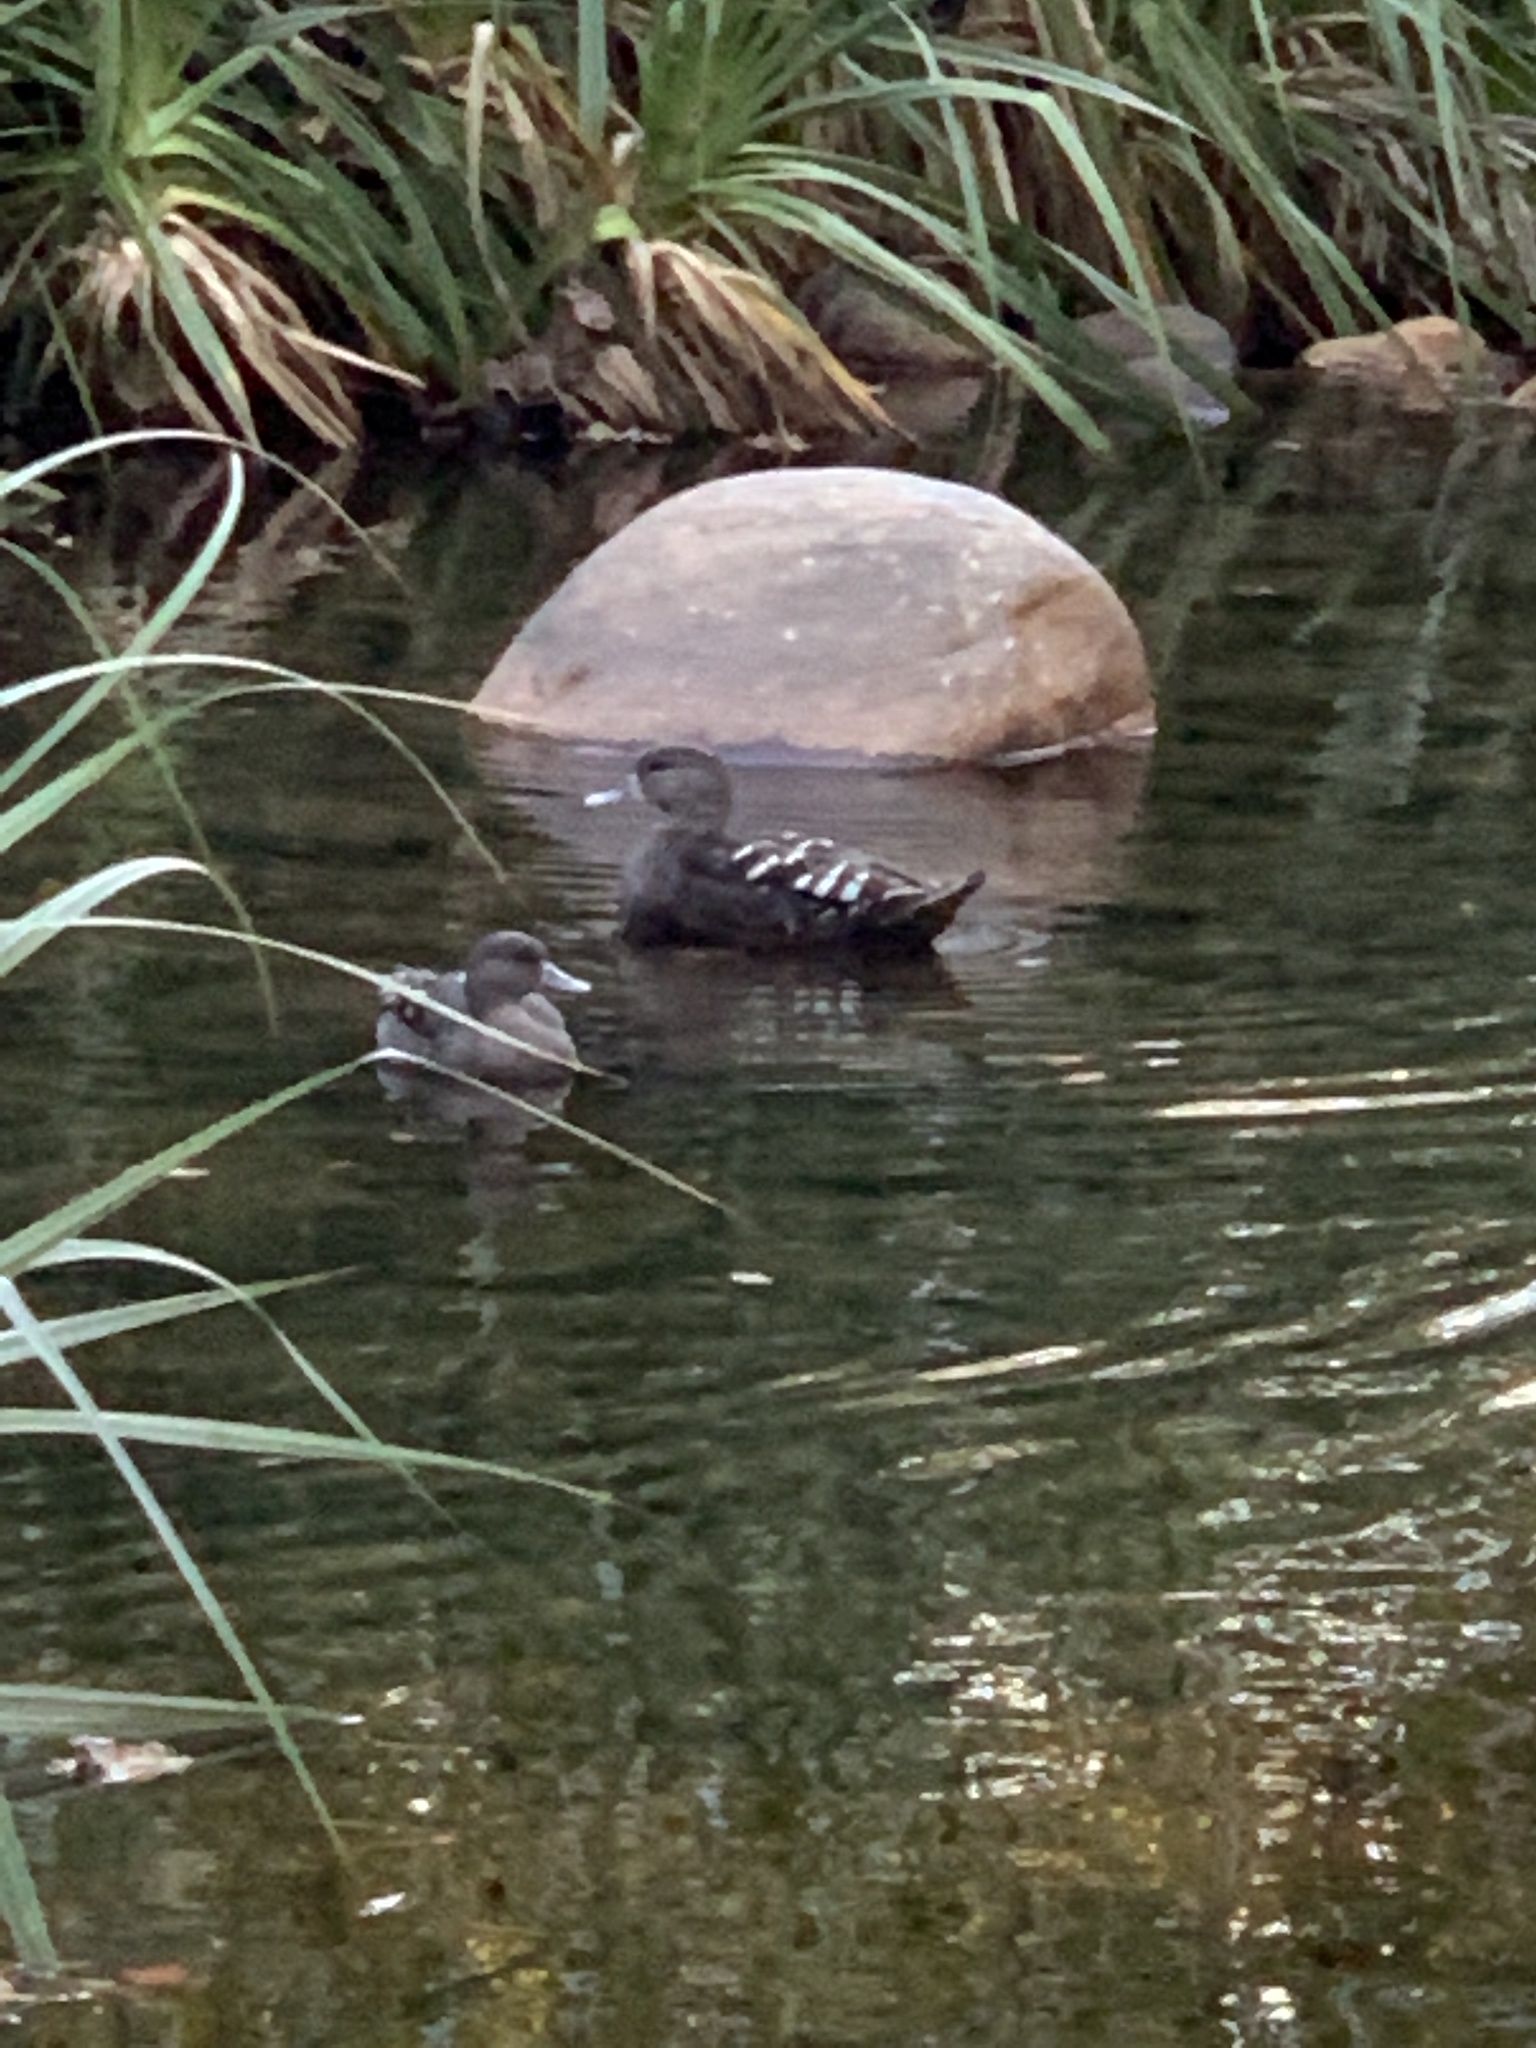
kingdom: Animalia
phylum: Chordata
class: Aves
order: Anseriformes
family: Anatidae
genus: Anas
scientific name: Anas sparsa
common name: African black duck
